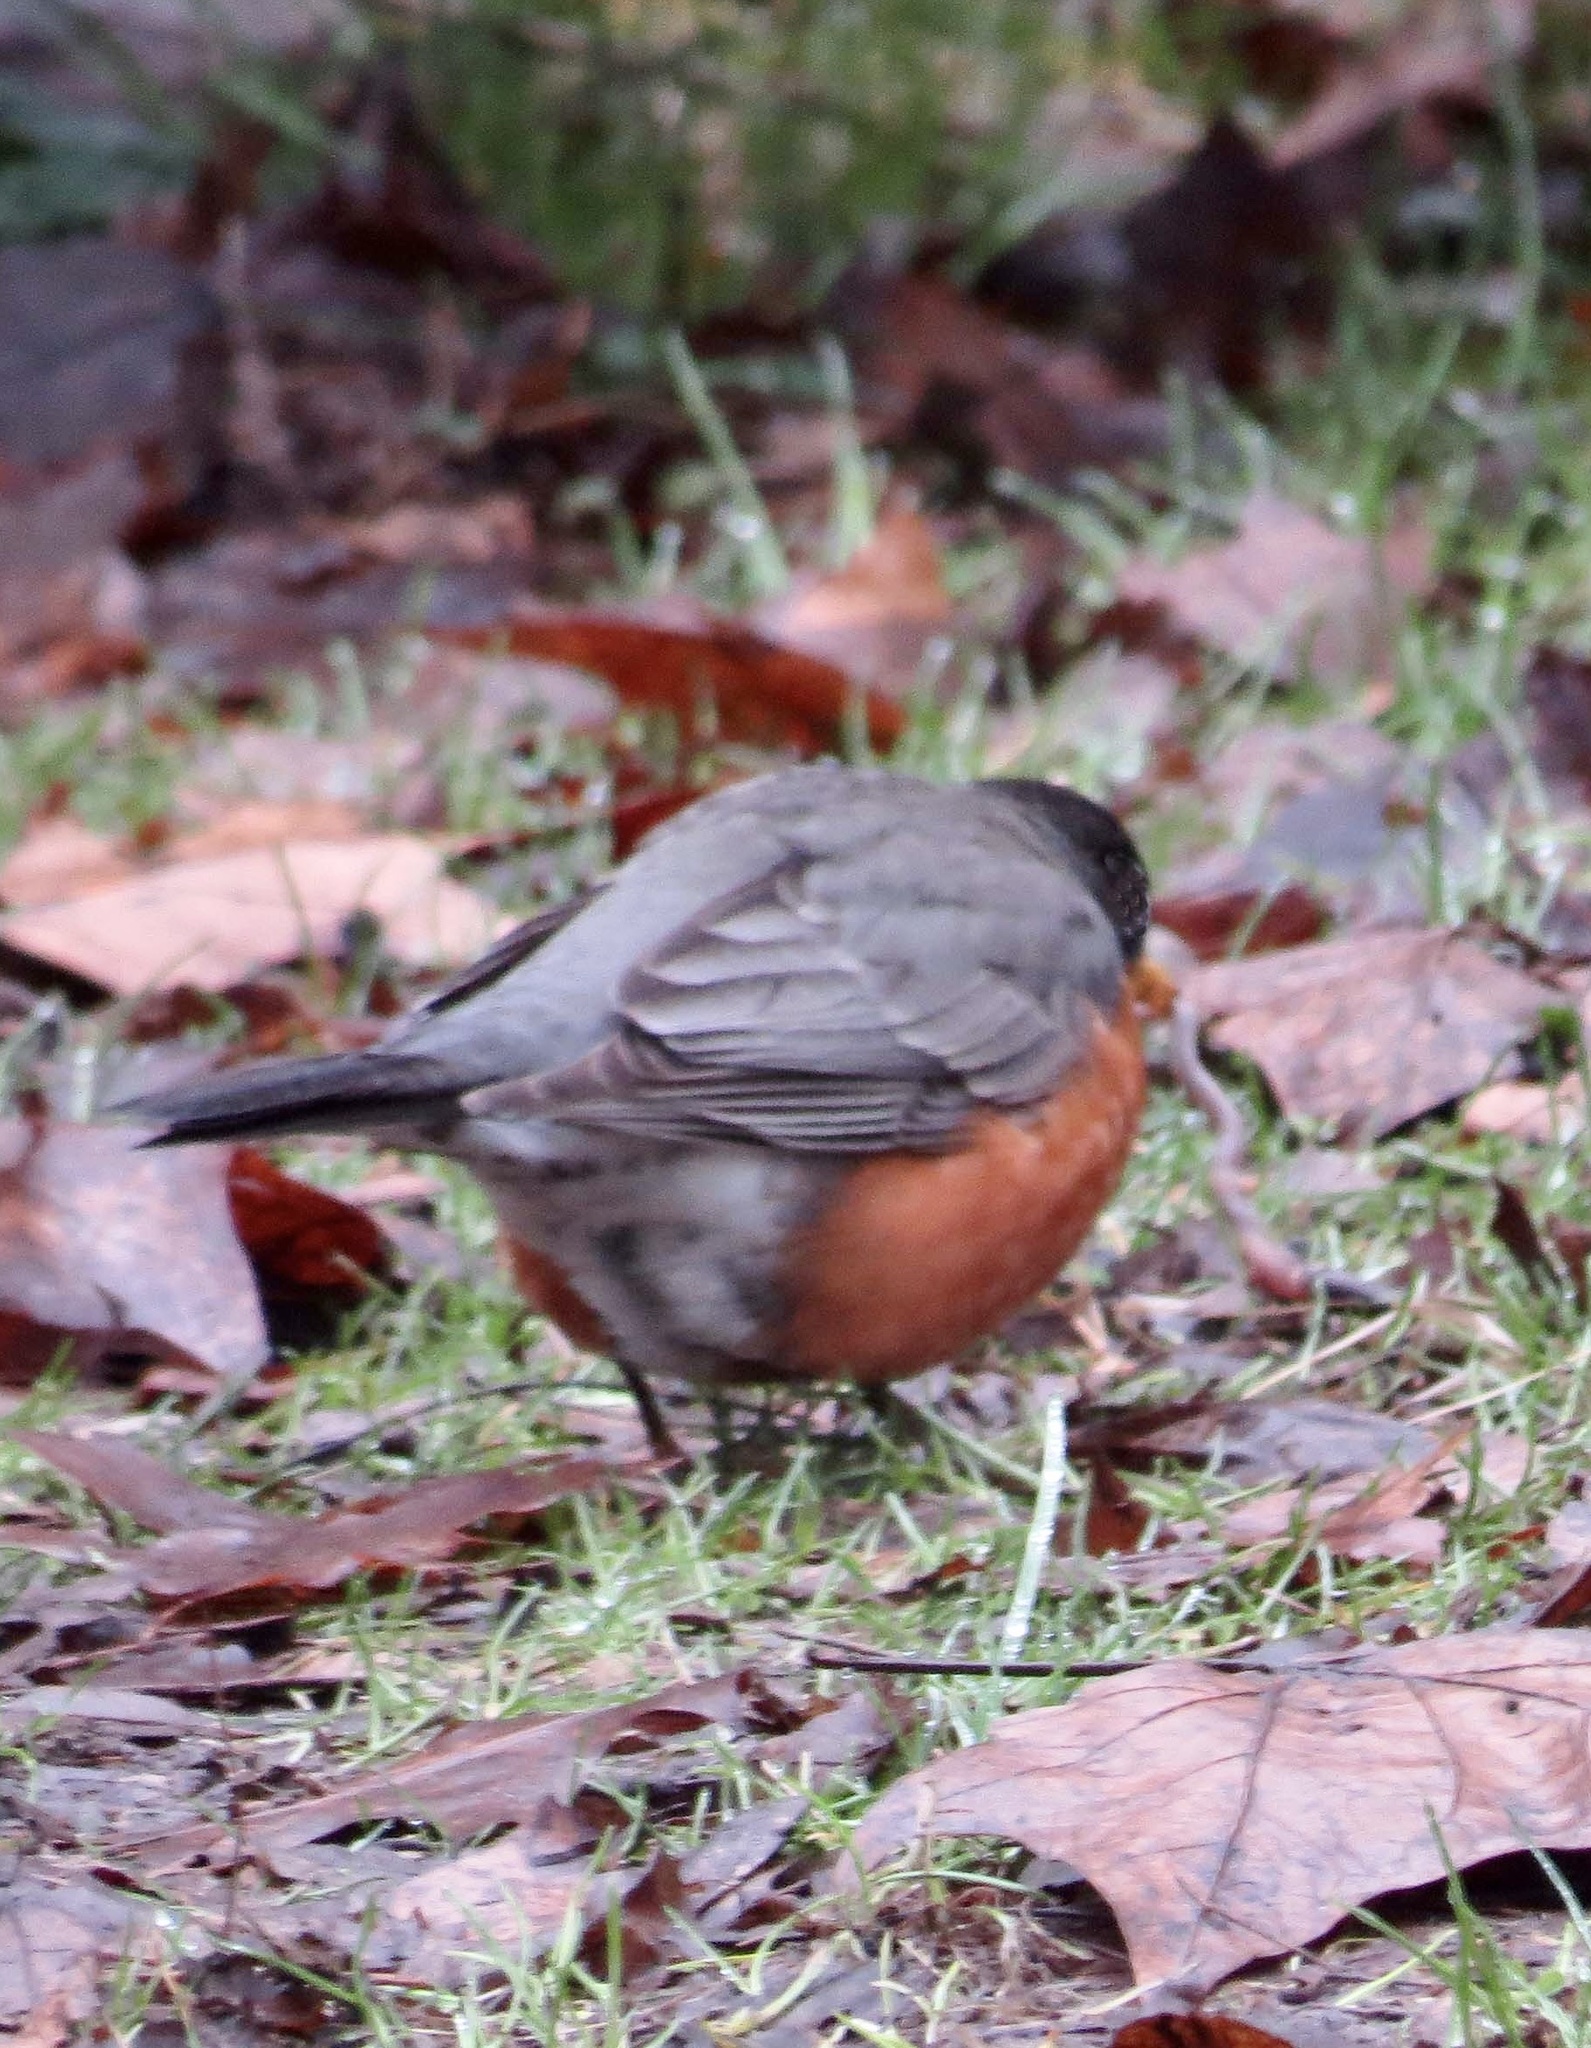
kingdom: Animalia
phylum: Chordata
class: Aves
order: Passeriformes
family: Turdidae
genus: Turdus
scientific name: Turdus migratorius
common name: American robin
